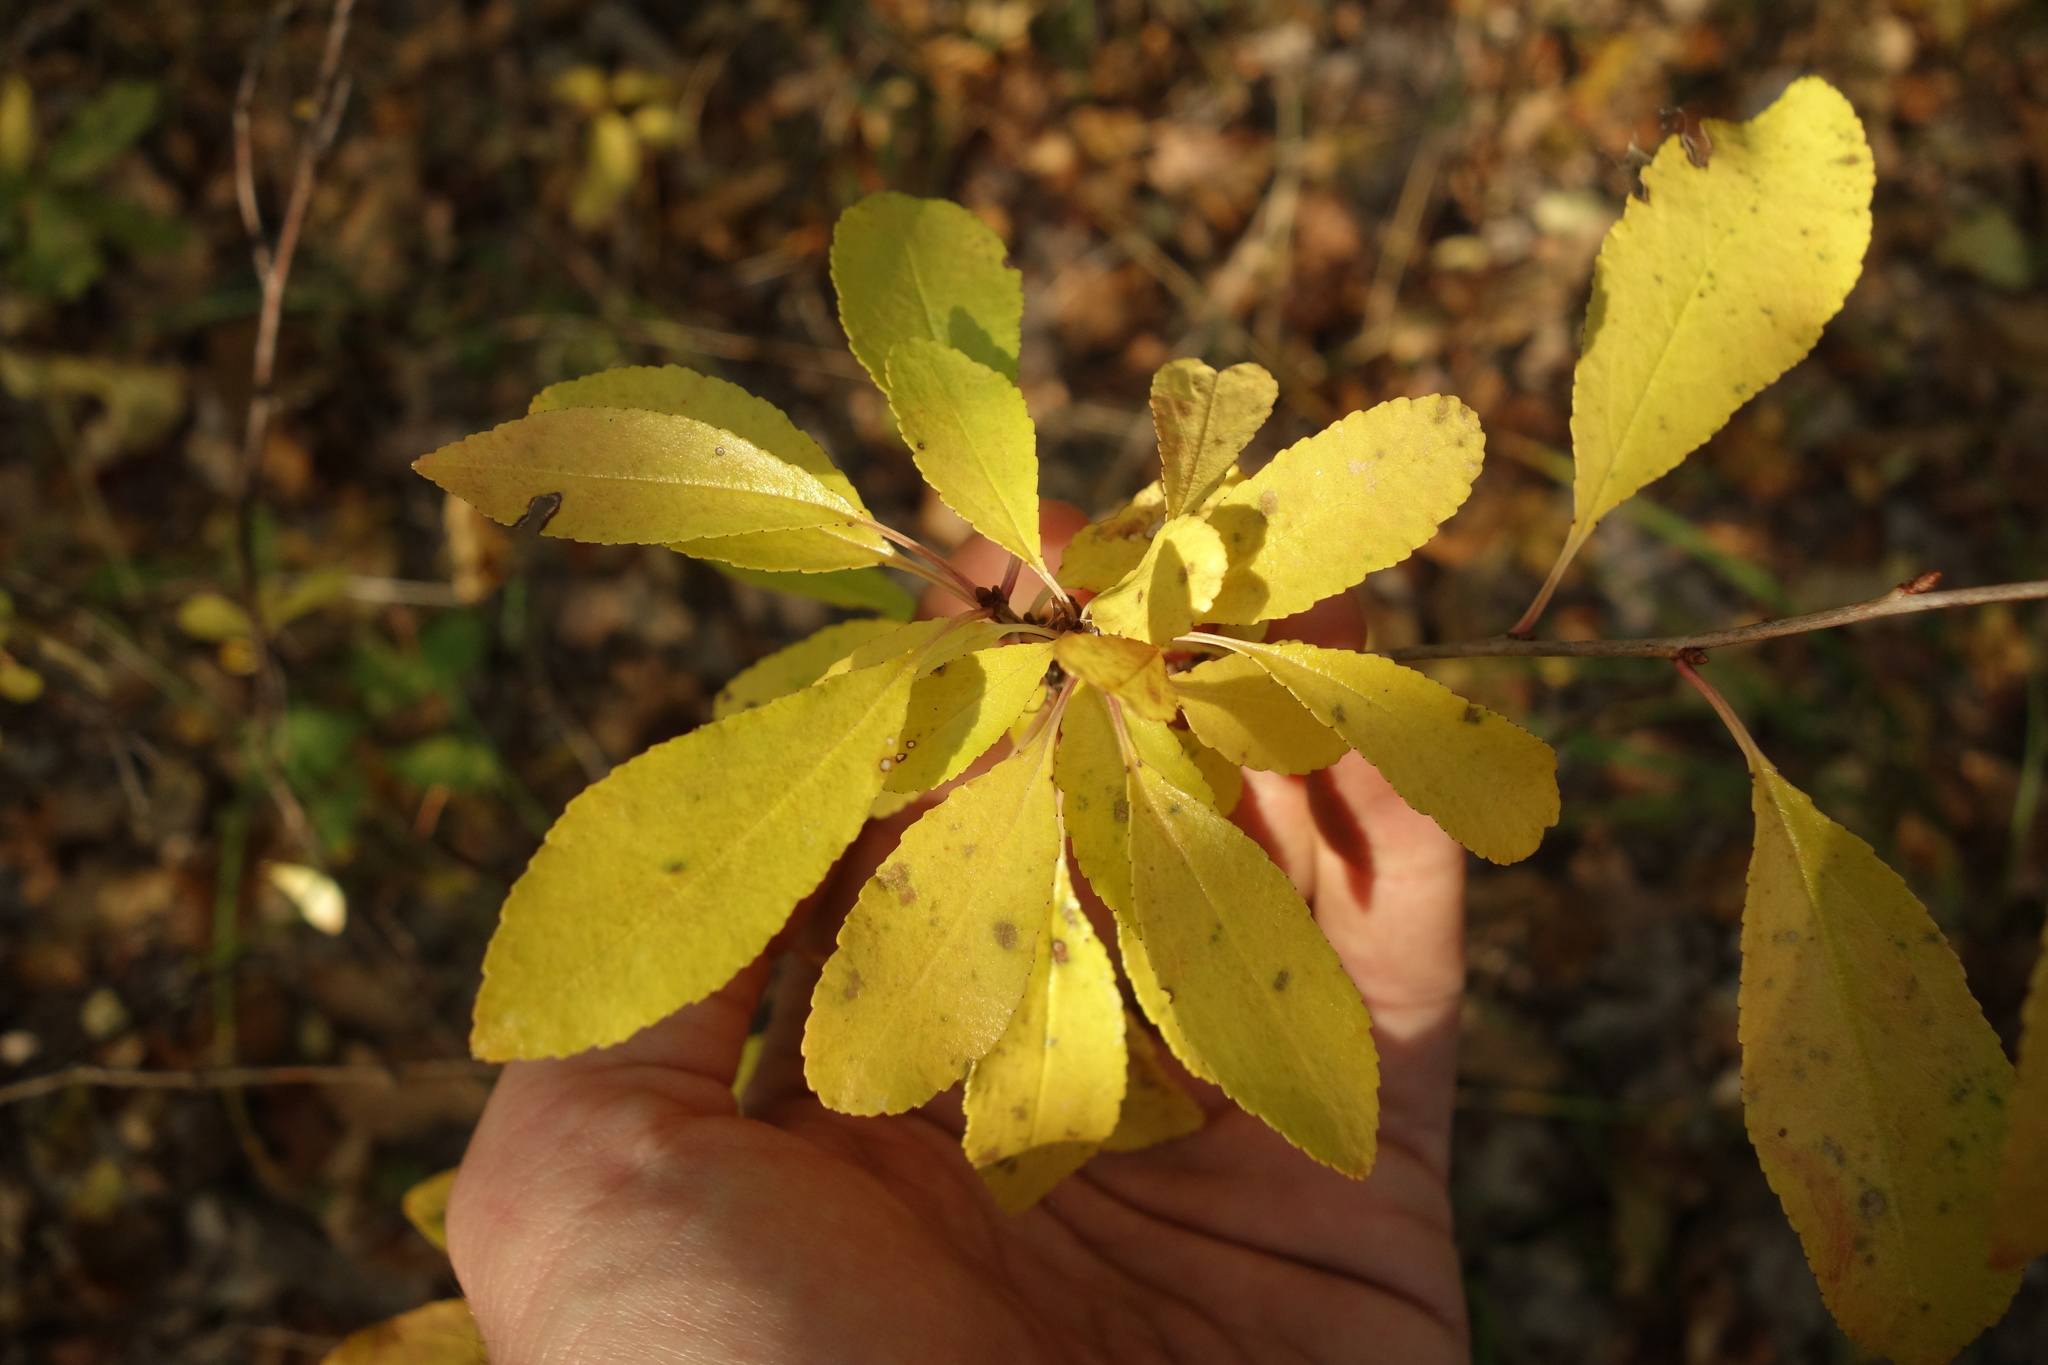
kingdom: Plantae
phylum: Tracheophyta
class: Magnoliopsida
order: Rosales
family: Rosaceae
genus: Prunus
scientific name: Prunus fruticosa
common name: European dwarf cherry
